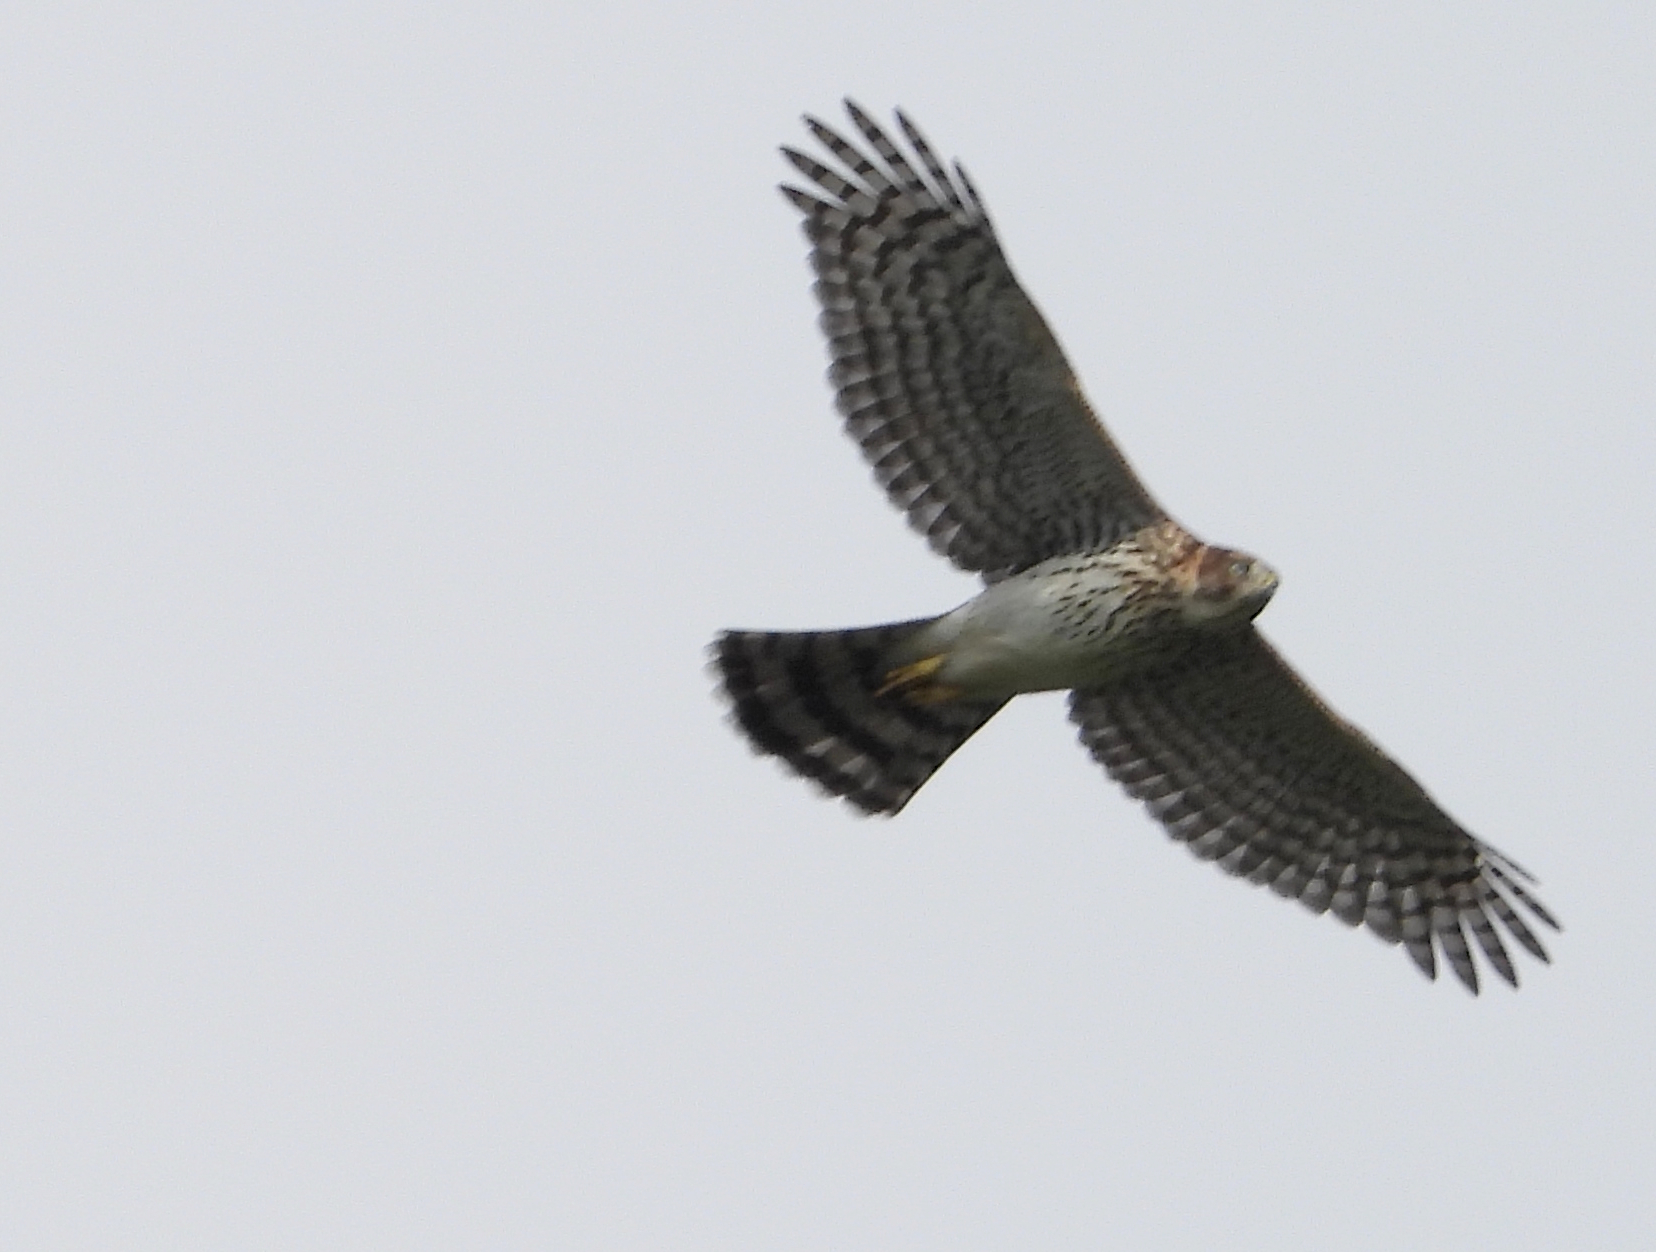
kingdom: Animalia
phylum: Chordata
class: Aves
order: Accipitriformes
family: Accipitridae
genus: Accipiter
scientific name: Accipiter cooperii
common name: Cooper's hawk
